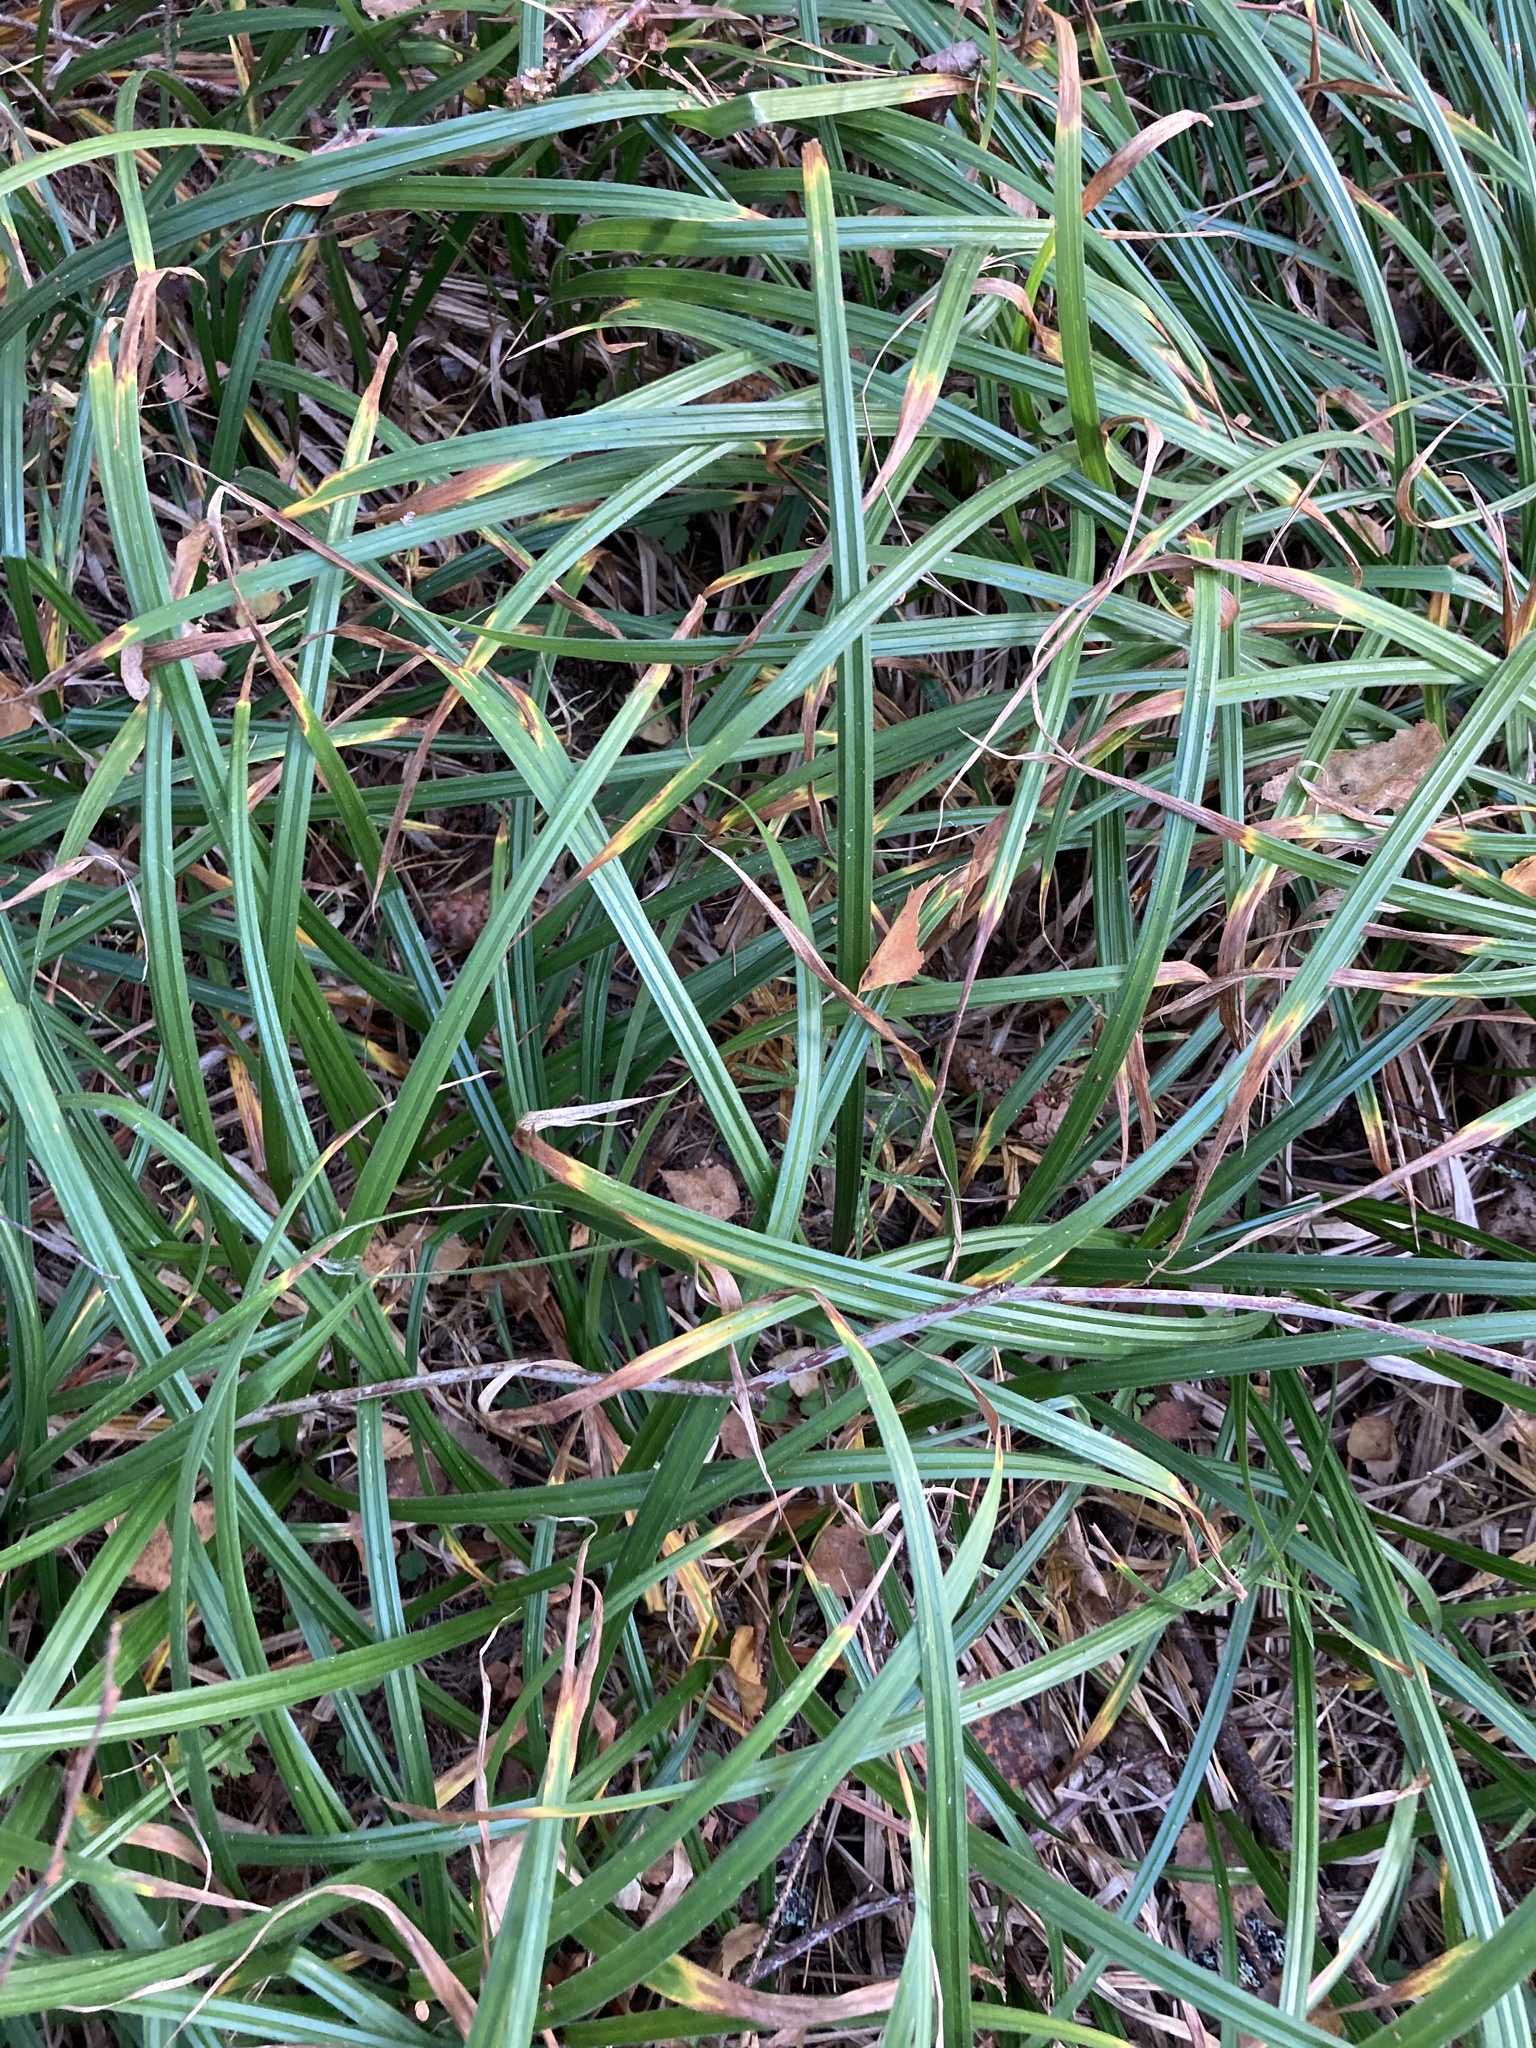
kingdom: Plantae
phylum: Tracheophyta
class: Liliopsida
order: Poales
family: Cyperaceae
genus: Carex
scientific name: Carex pilosa
